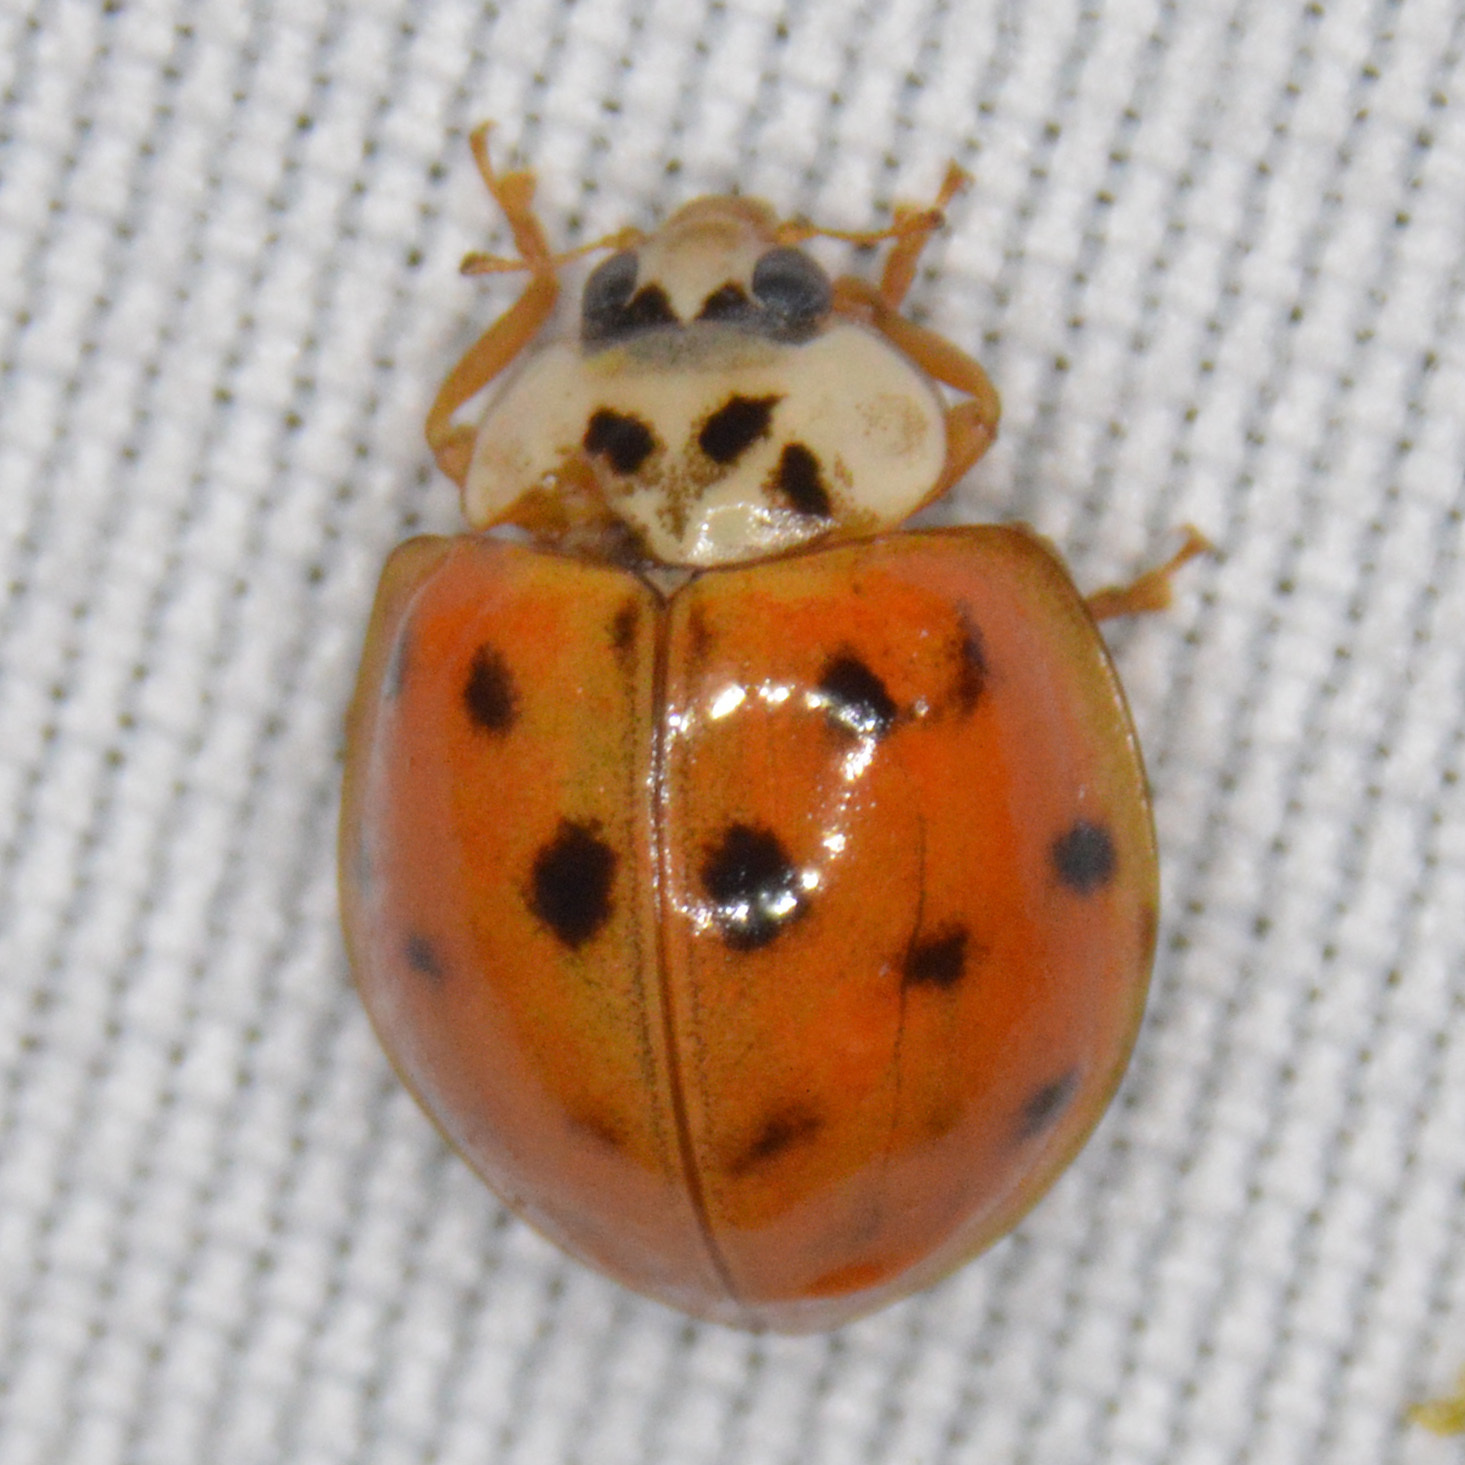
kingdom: Animalia
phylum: Arthropoda
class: Insecta
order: Coleoptera
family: Coccinellidae
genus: Harmonia
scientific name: Harmonia axyridis
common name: Harlequin ladybird
